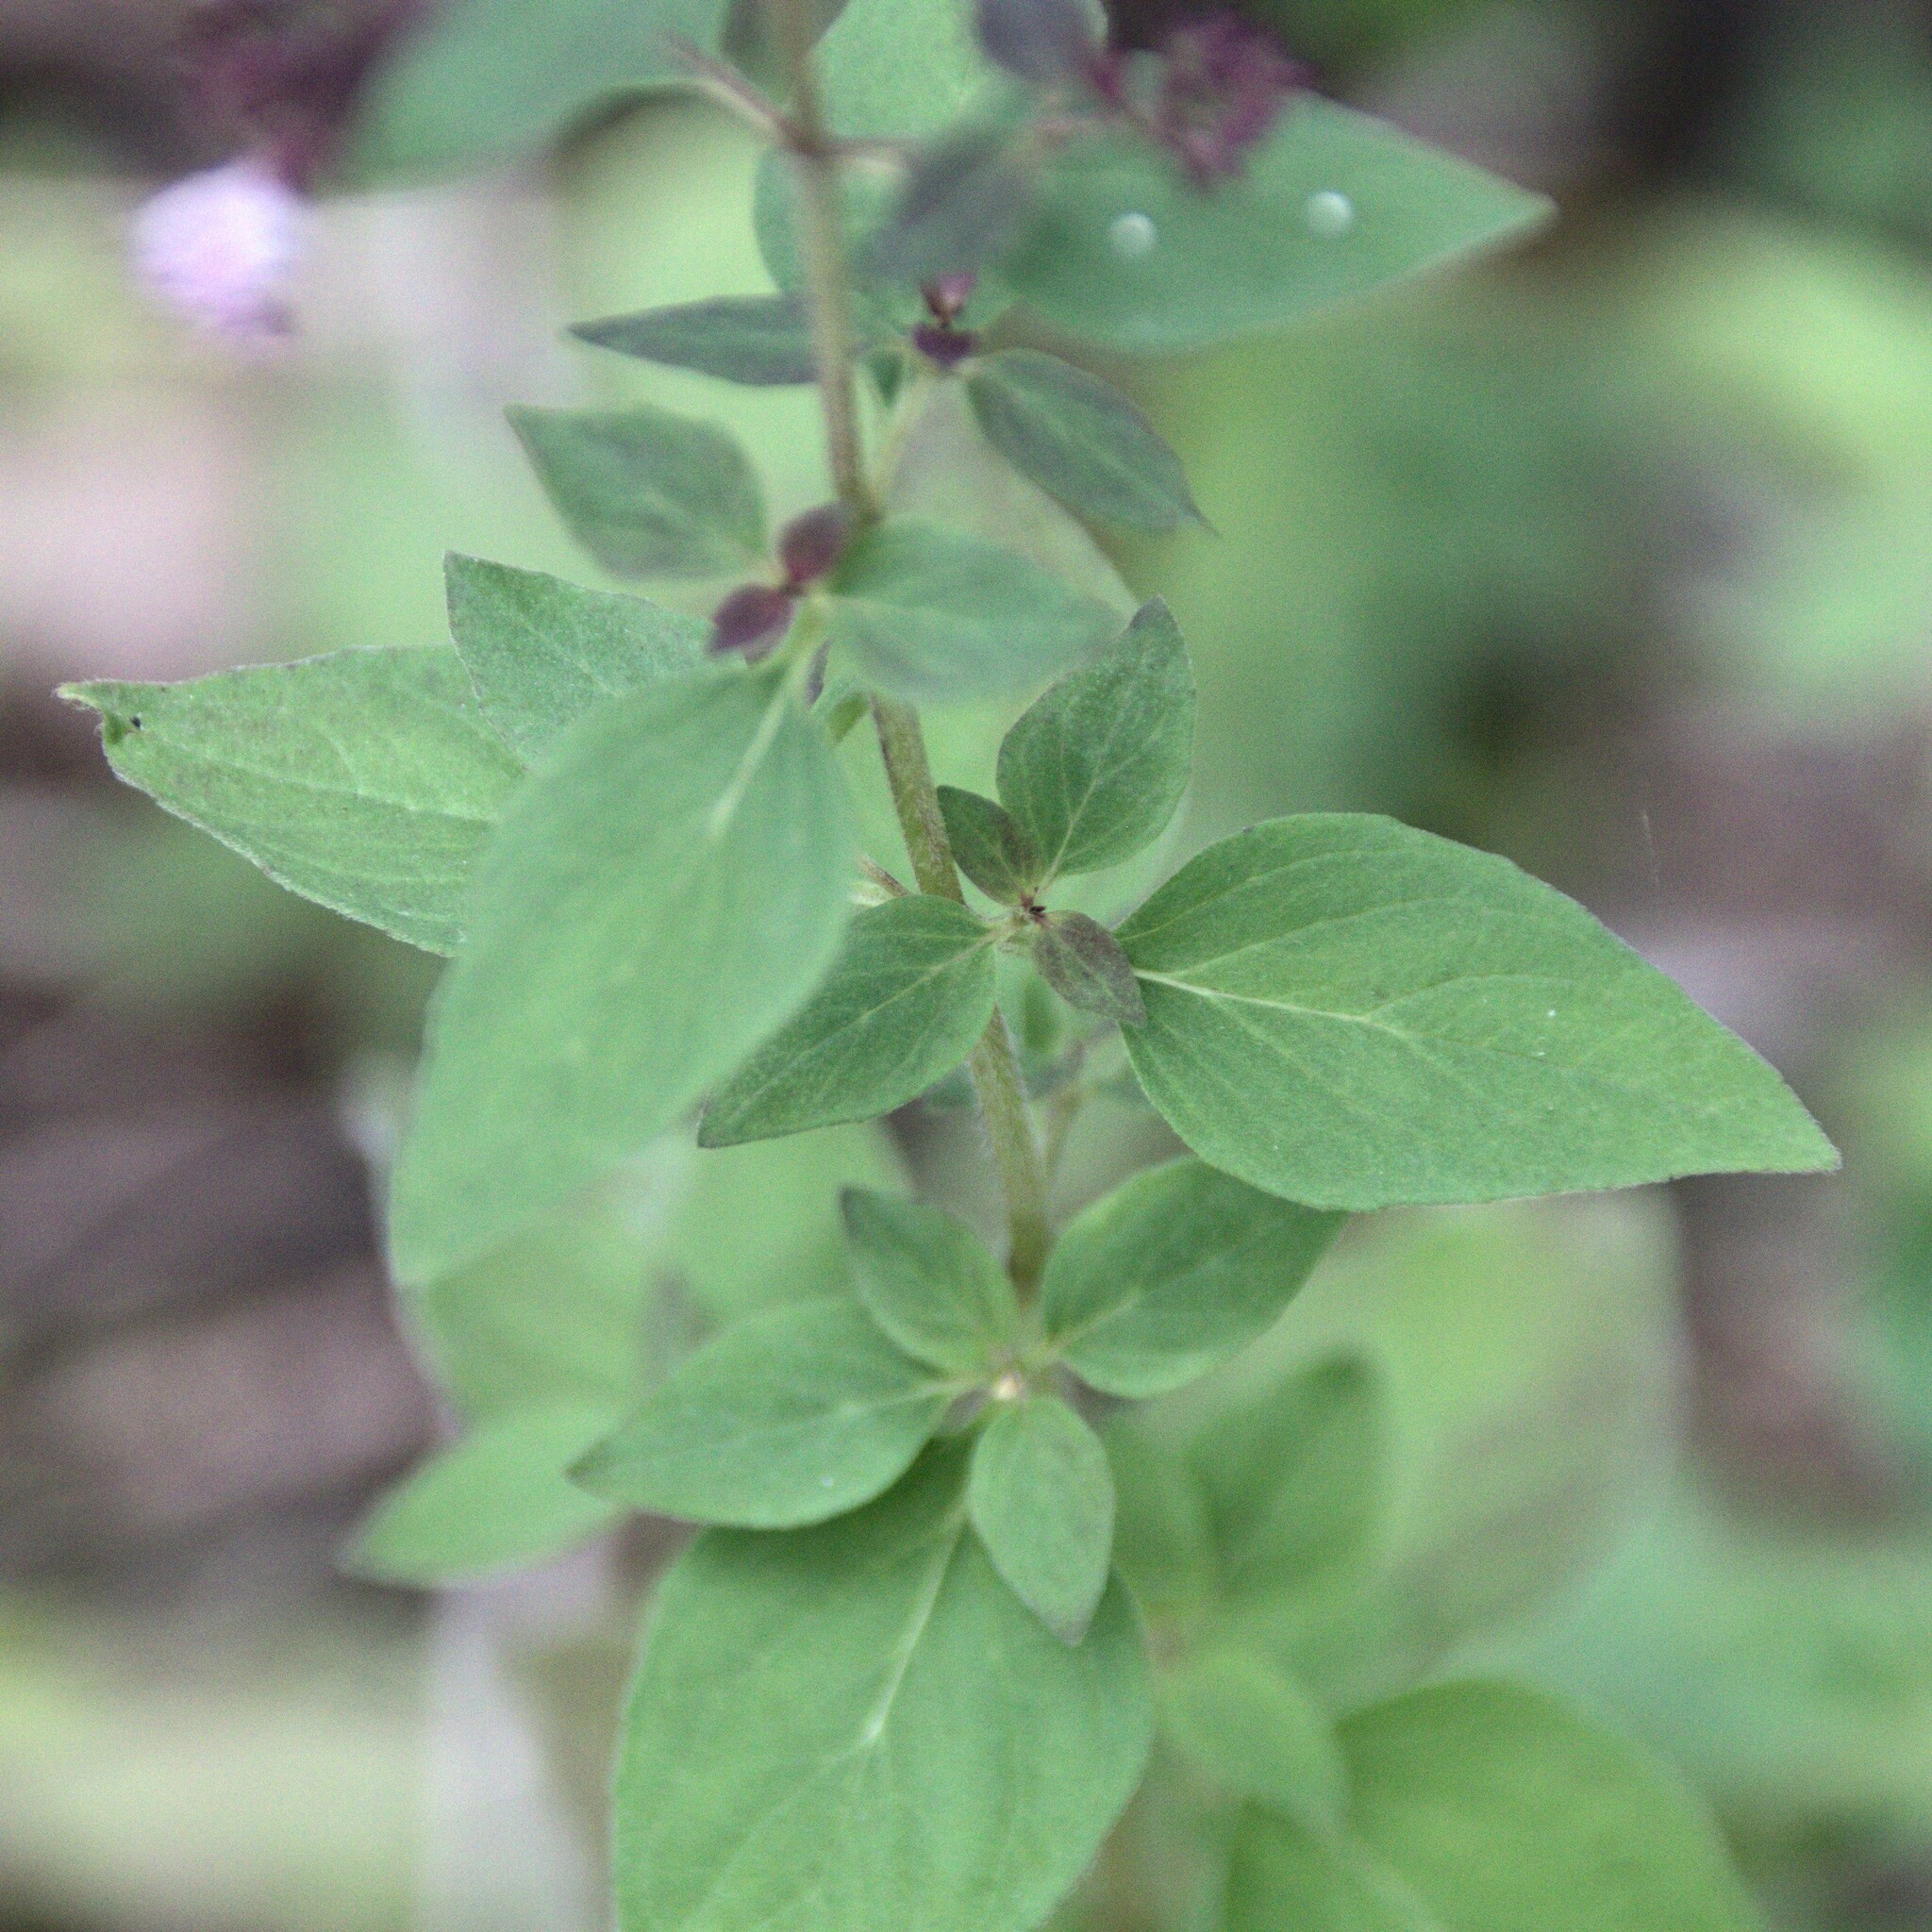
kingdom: Plantae
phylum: Tracheophyta
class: Magnoliopsida
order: Lamiales
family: Lamiaceae
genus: Origanum
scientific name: Origanum vulgare
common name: Wild marjoram
